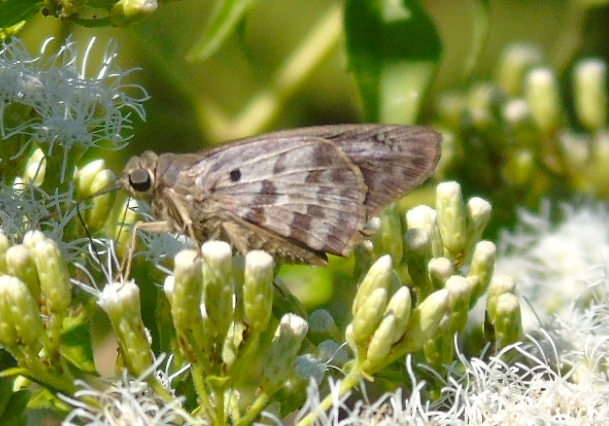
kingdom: Animalia
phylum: Arthropoda
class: Insecta
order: Lepidoptera
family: Hesperiidae
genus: Polygonus
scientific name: Polygonus leo
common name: Hammoch skipper
